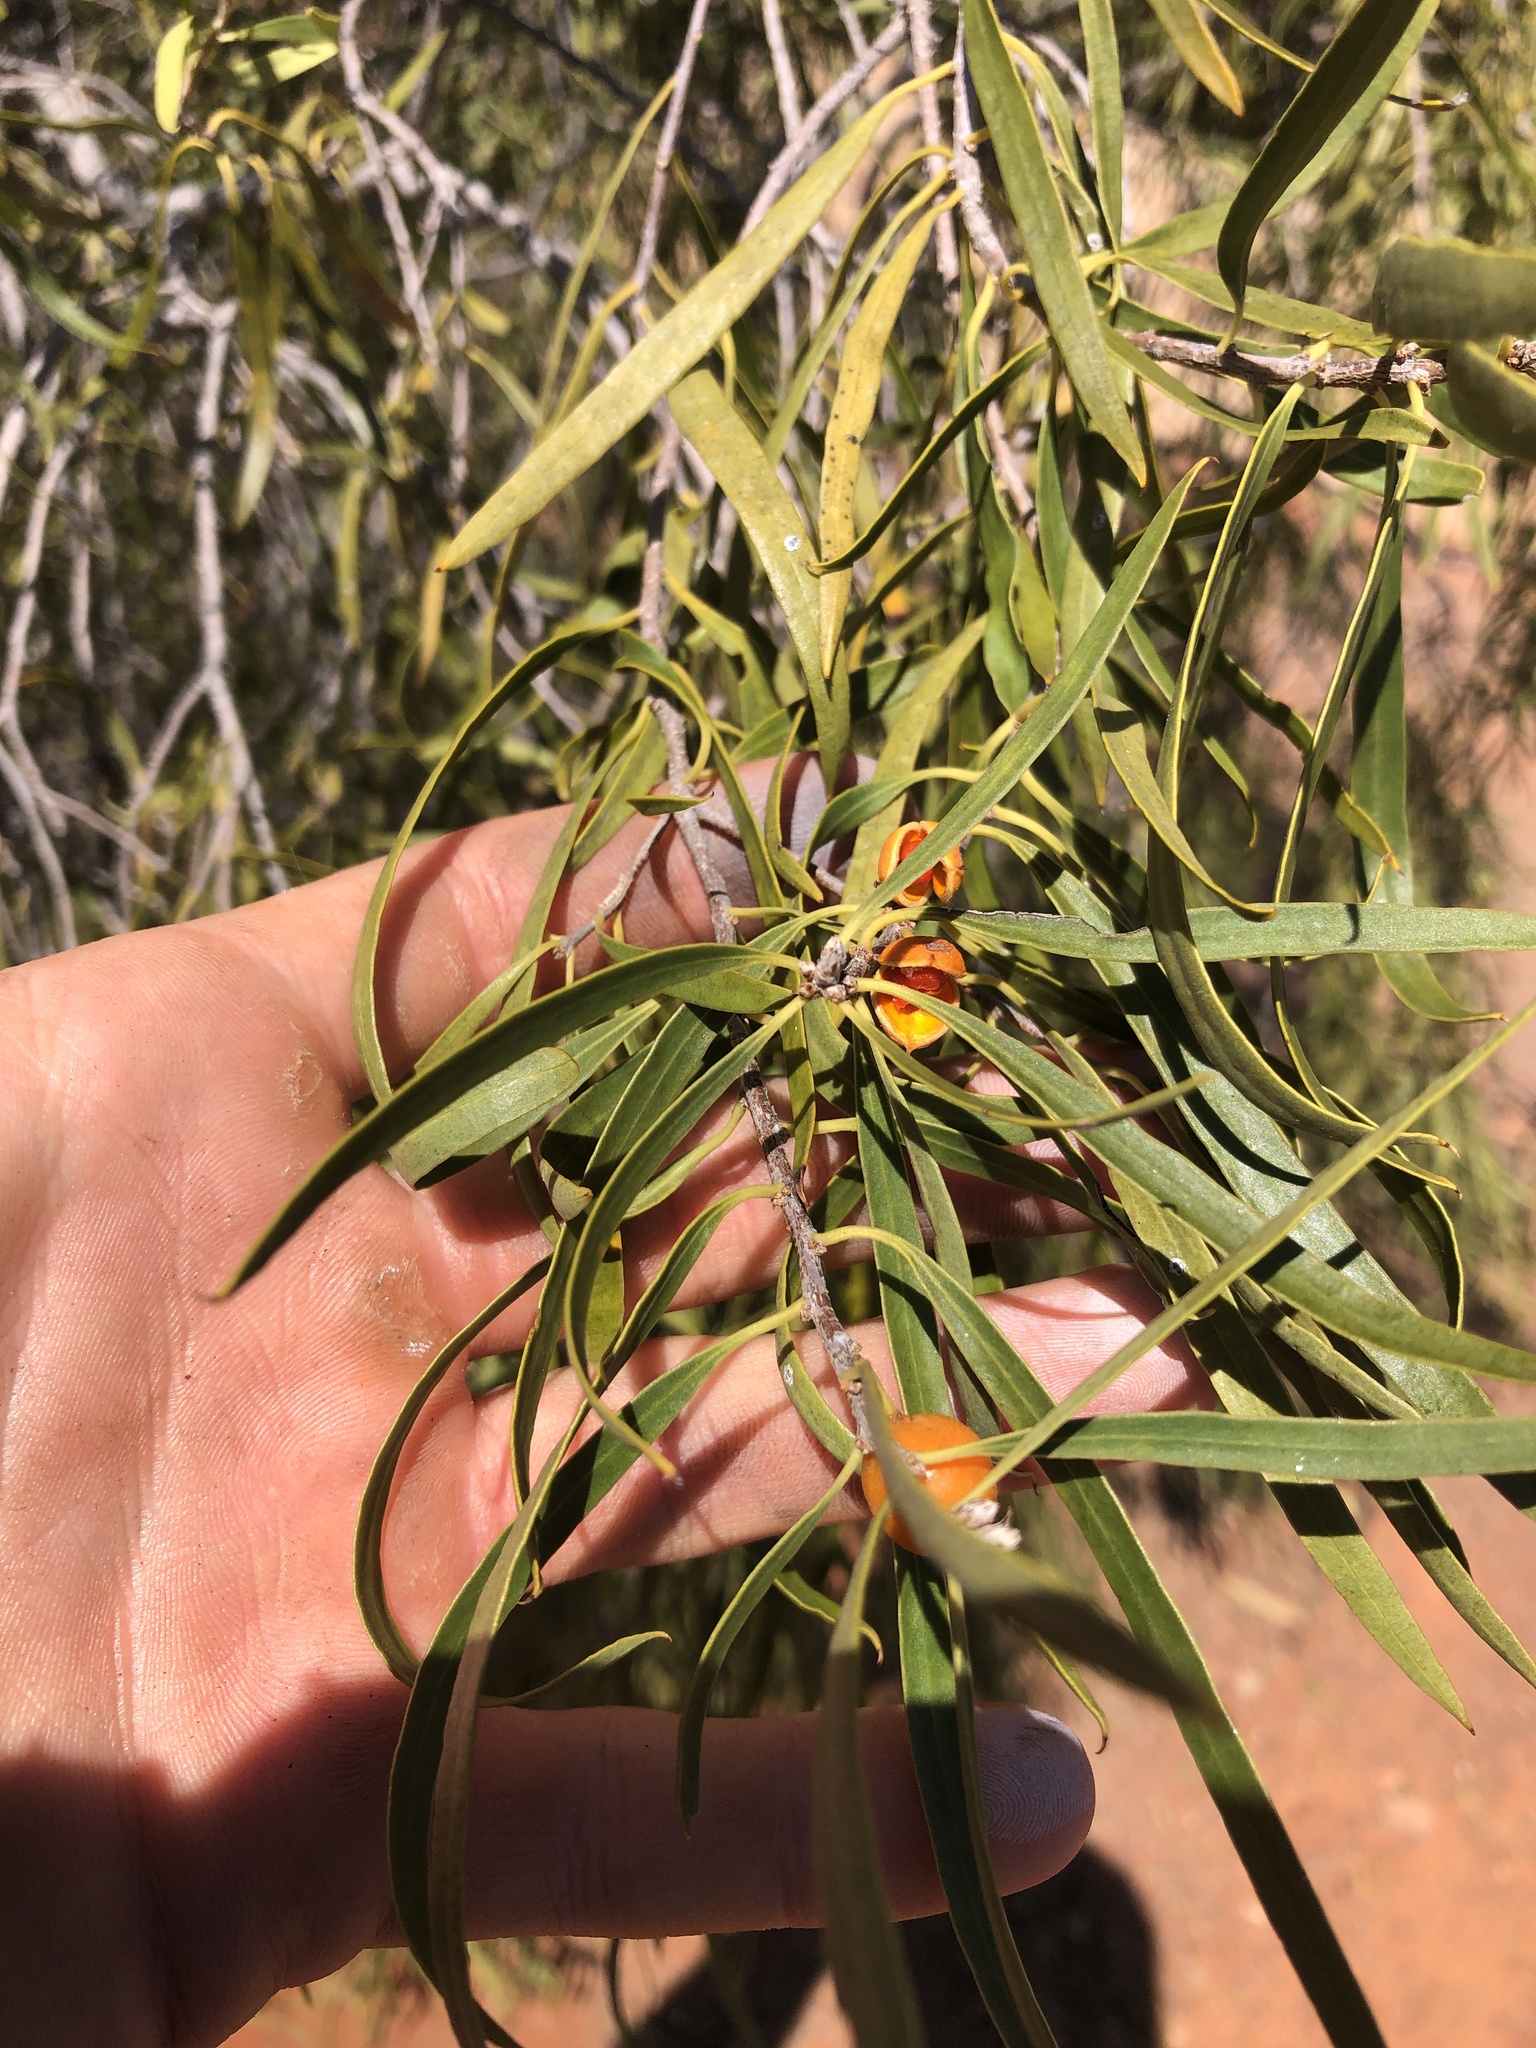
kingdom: Plantae
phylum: Tracheophyta
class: Magnoliopsida
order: Apiales
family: Pittosporaceae
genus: Pittosporum
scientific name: Pittosporum angustifolium
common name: Weeping pittosporum
